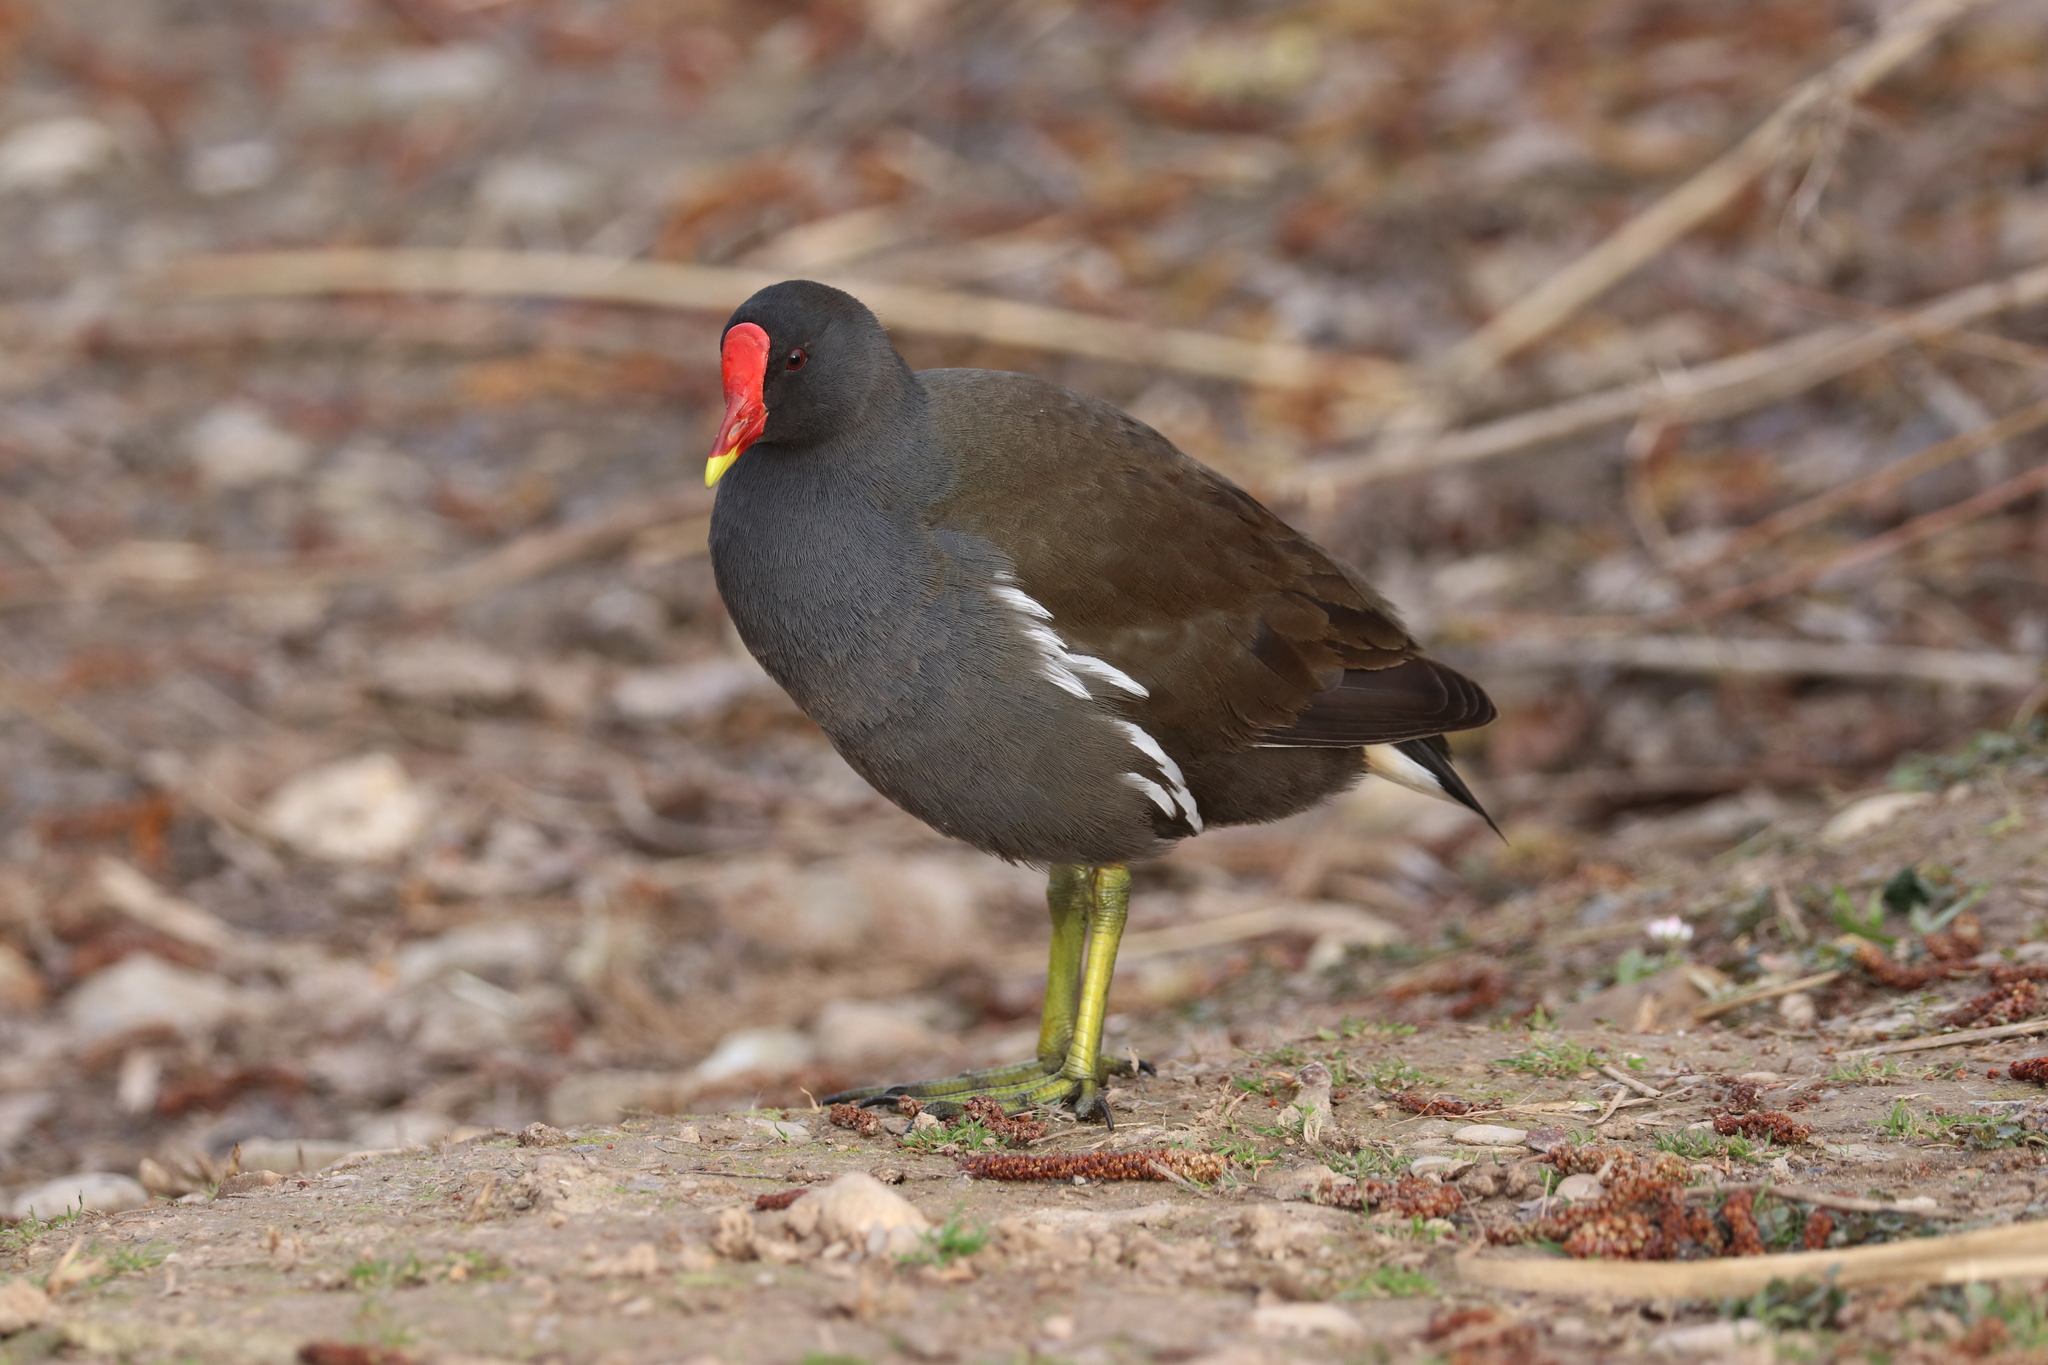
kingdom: Animalia
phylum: Chordata
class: Aves
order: Gruiformes
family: Rallidae
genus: Gallinula
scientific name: Gallinula chloropus
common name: Common moorhen
